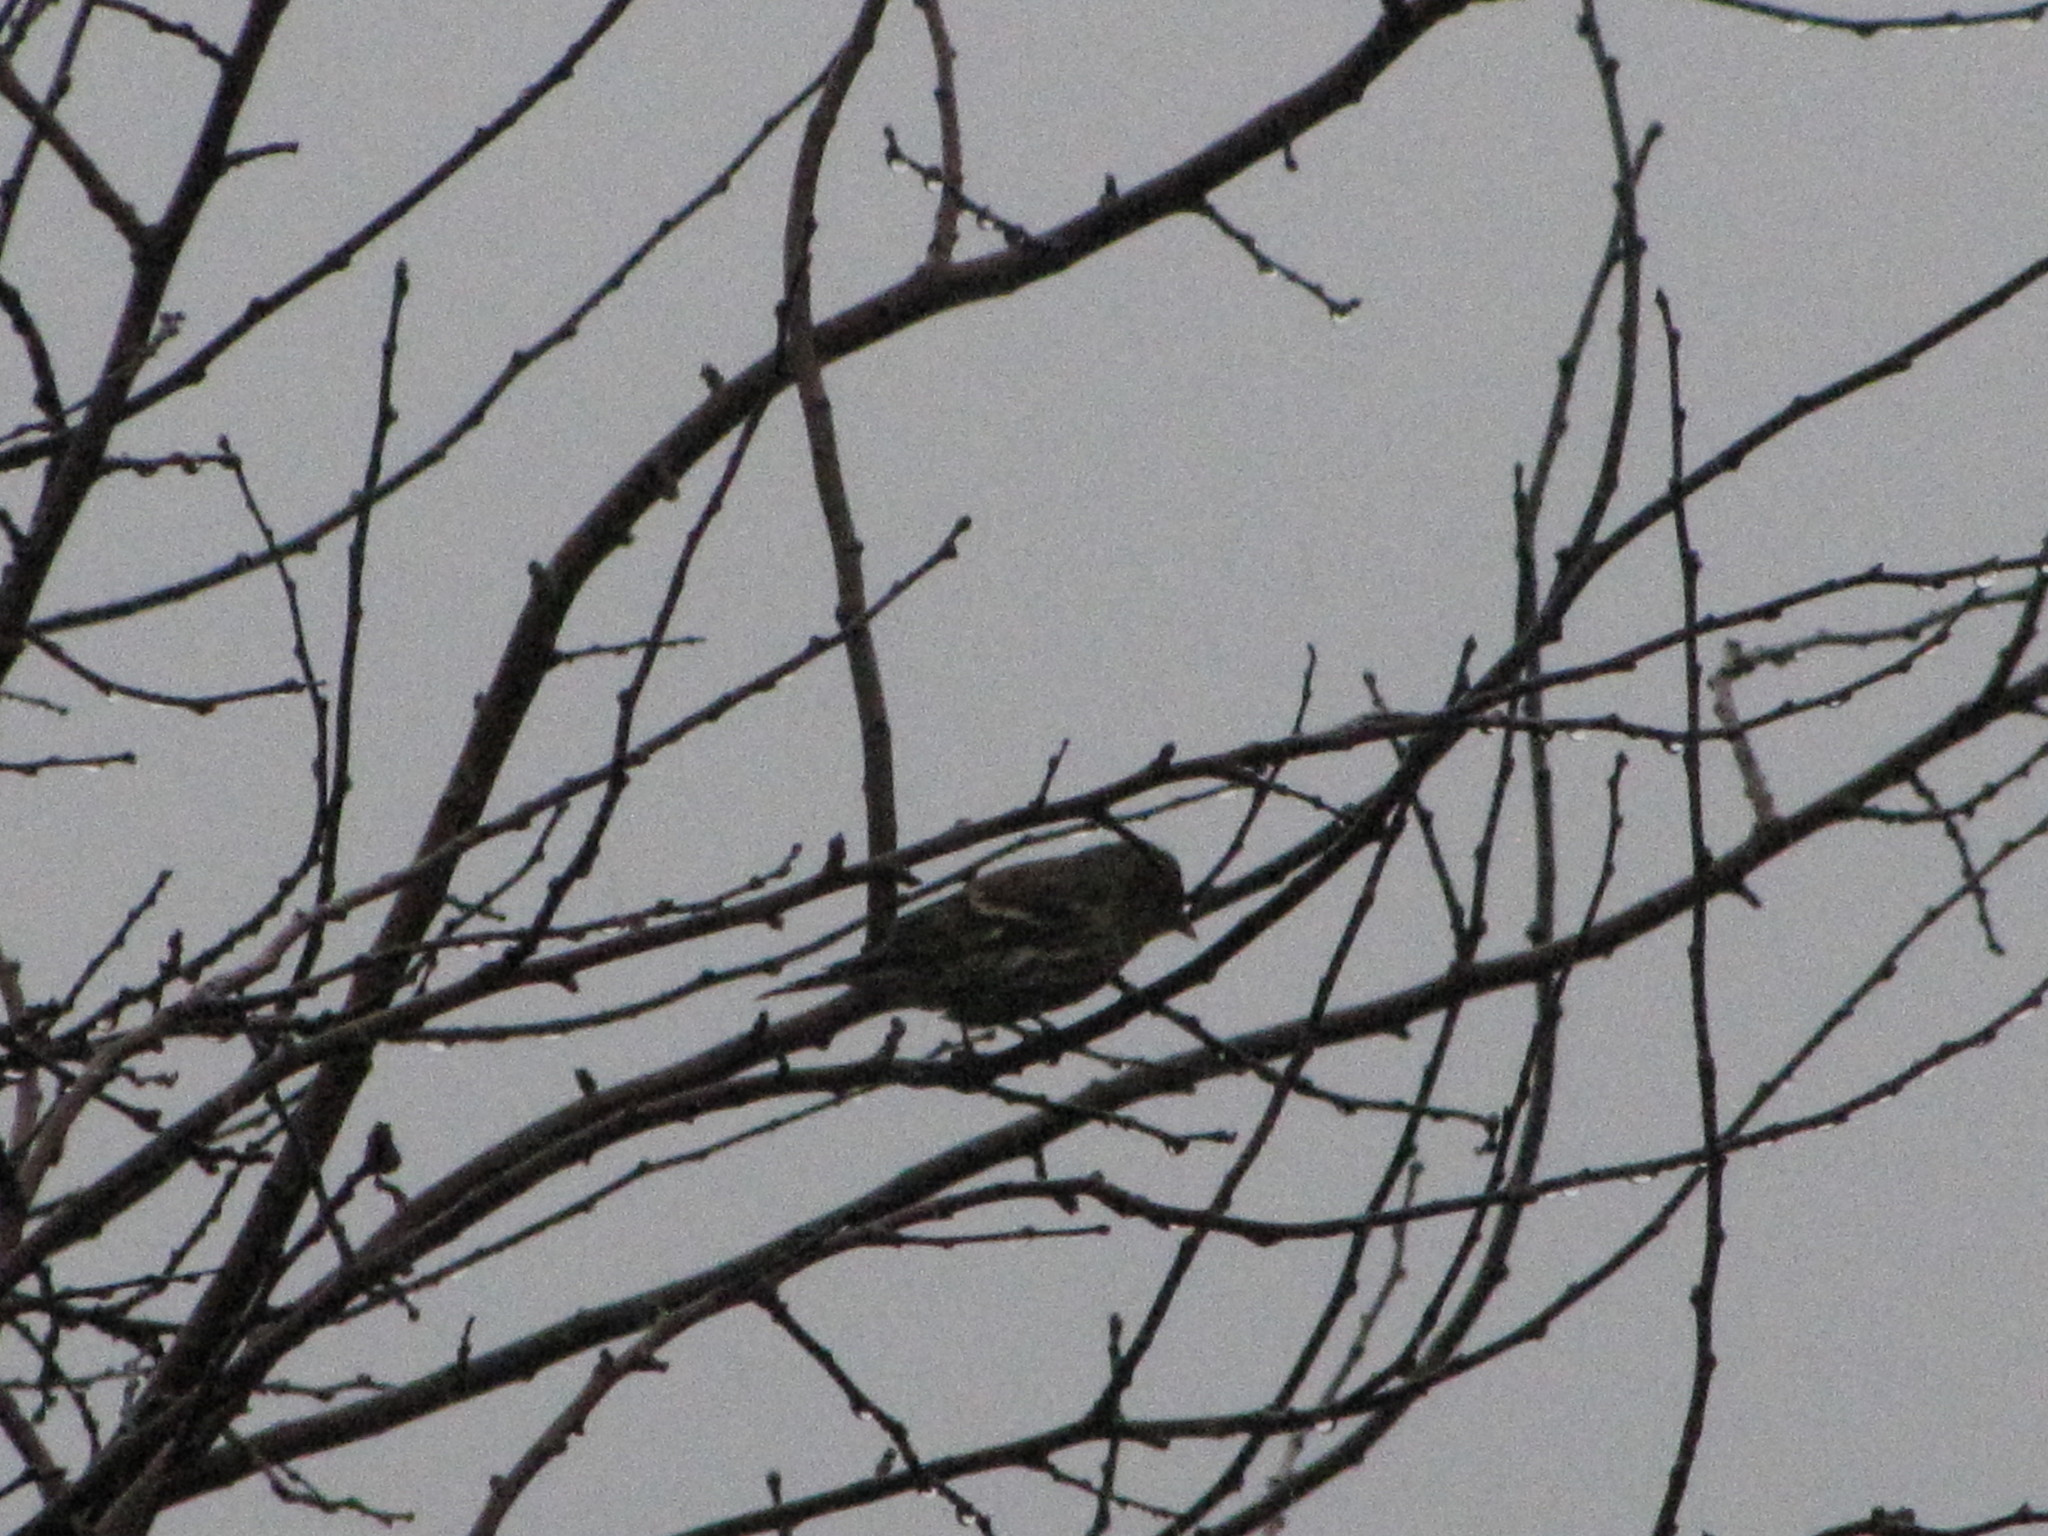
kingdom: Animalia
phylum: Chordata
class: Aves
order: Passeriformes
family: Fringillidae
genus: Spinus
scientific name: Spinus pinus
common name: Pine siskin
